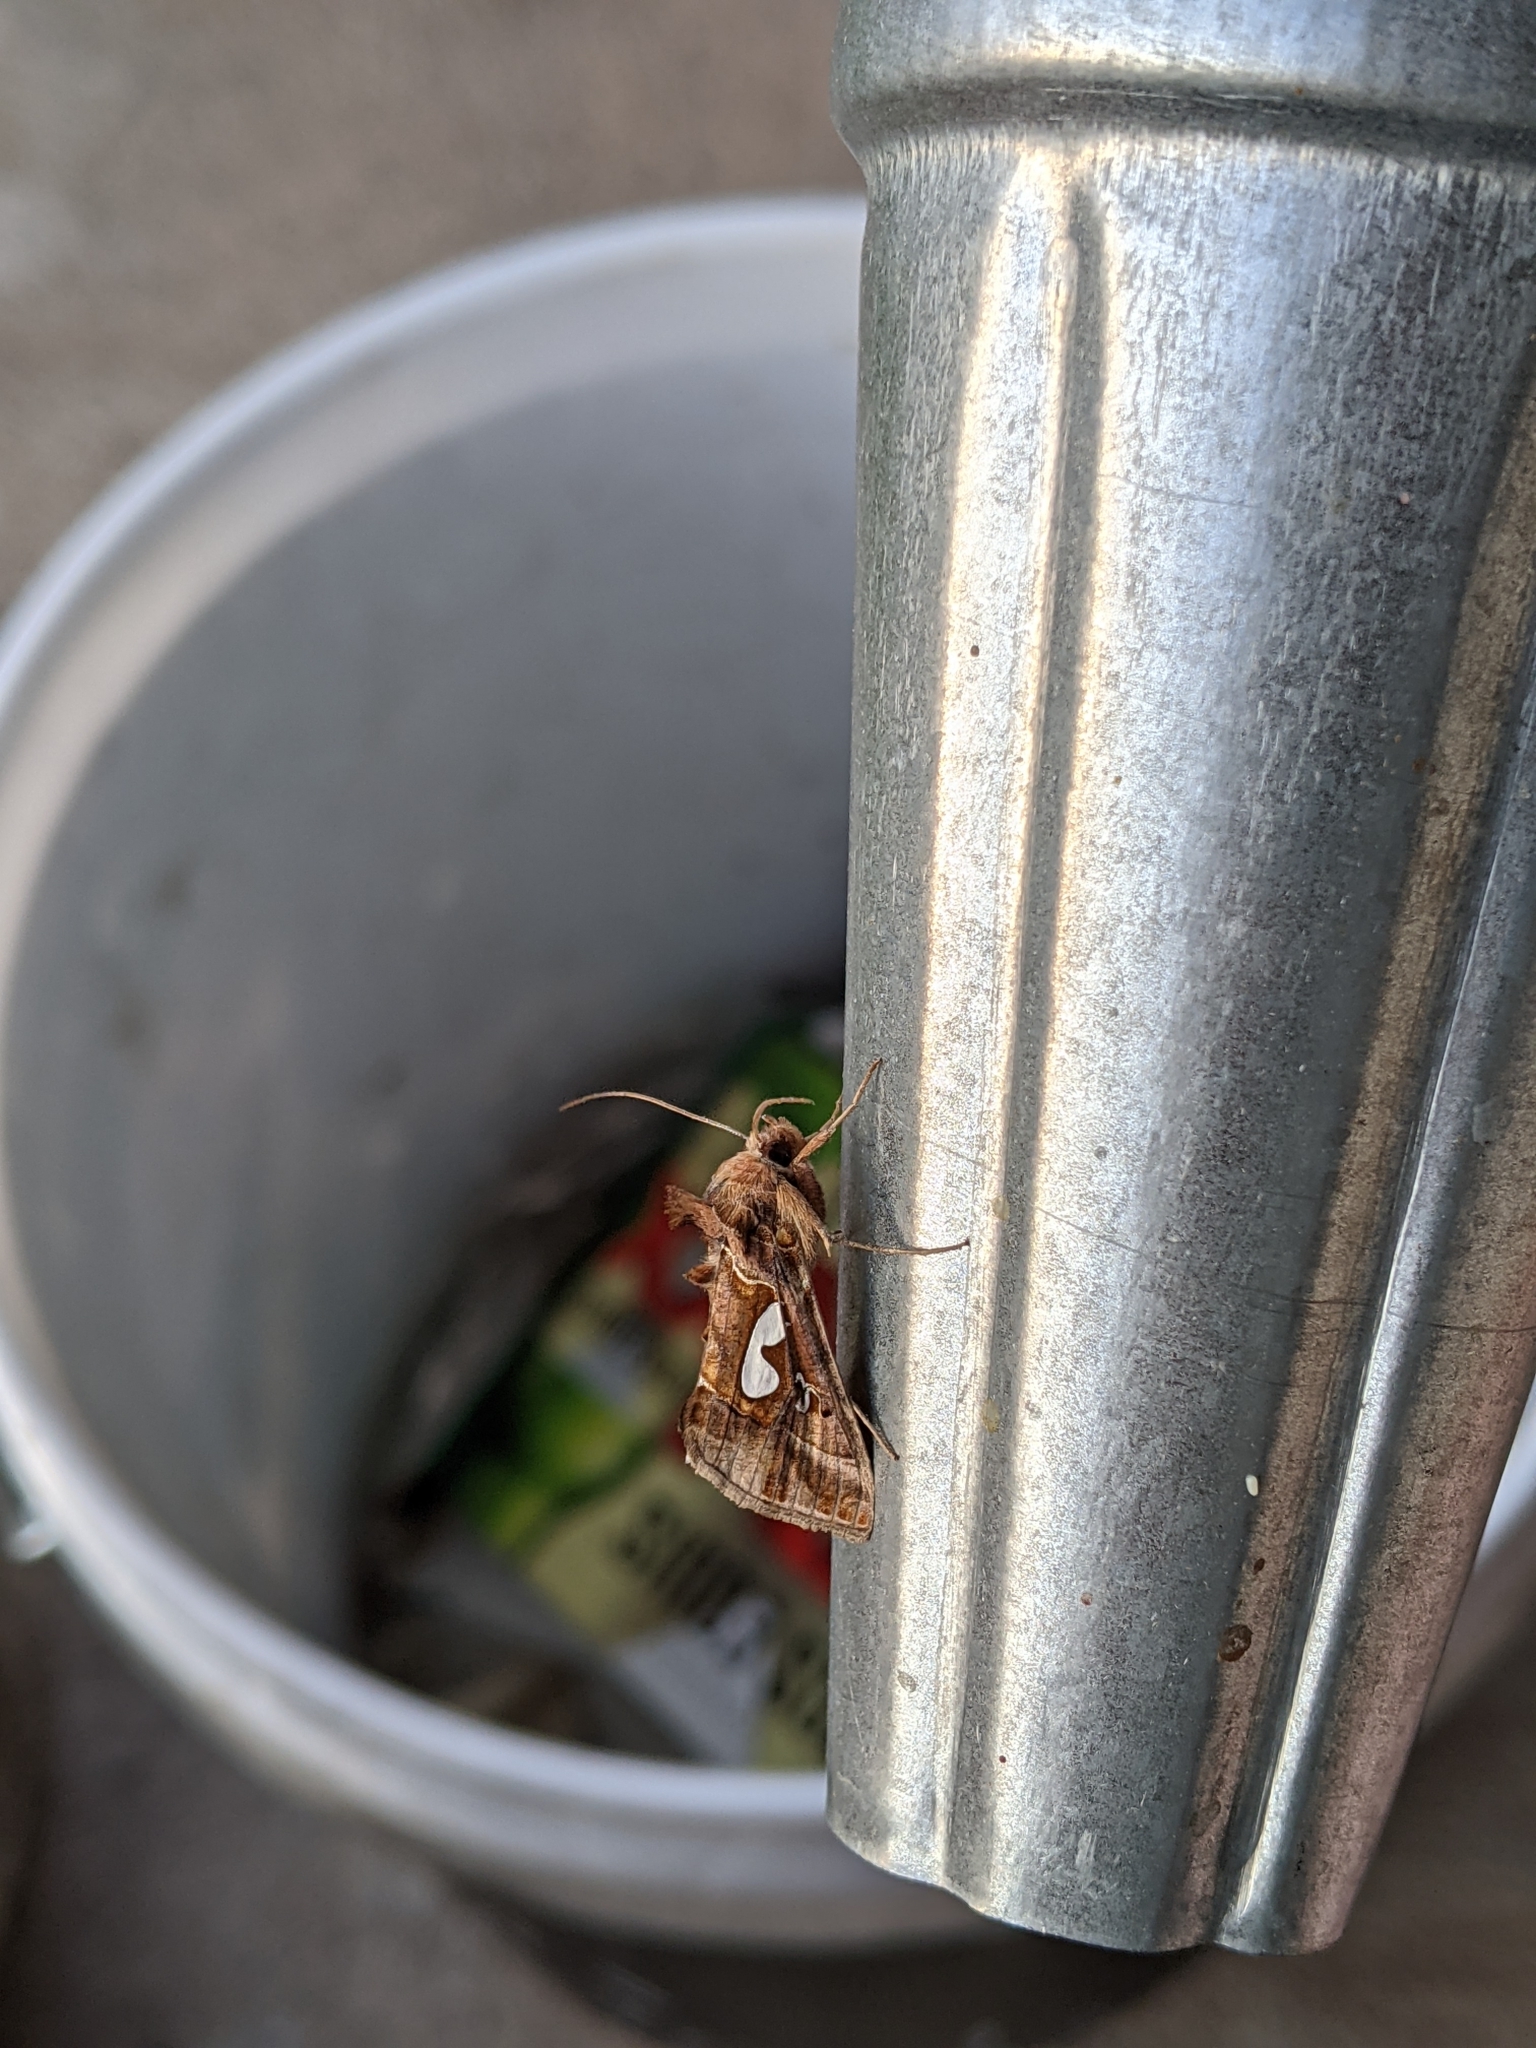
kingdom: Animalia
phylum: Arthropoda
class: Insecta
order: Lepidoptera
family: Noctuidae
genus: Megalographa
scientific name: Megalographa biloba
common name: Cutworm
